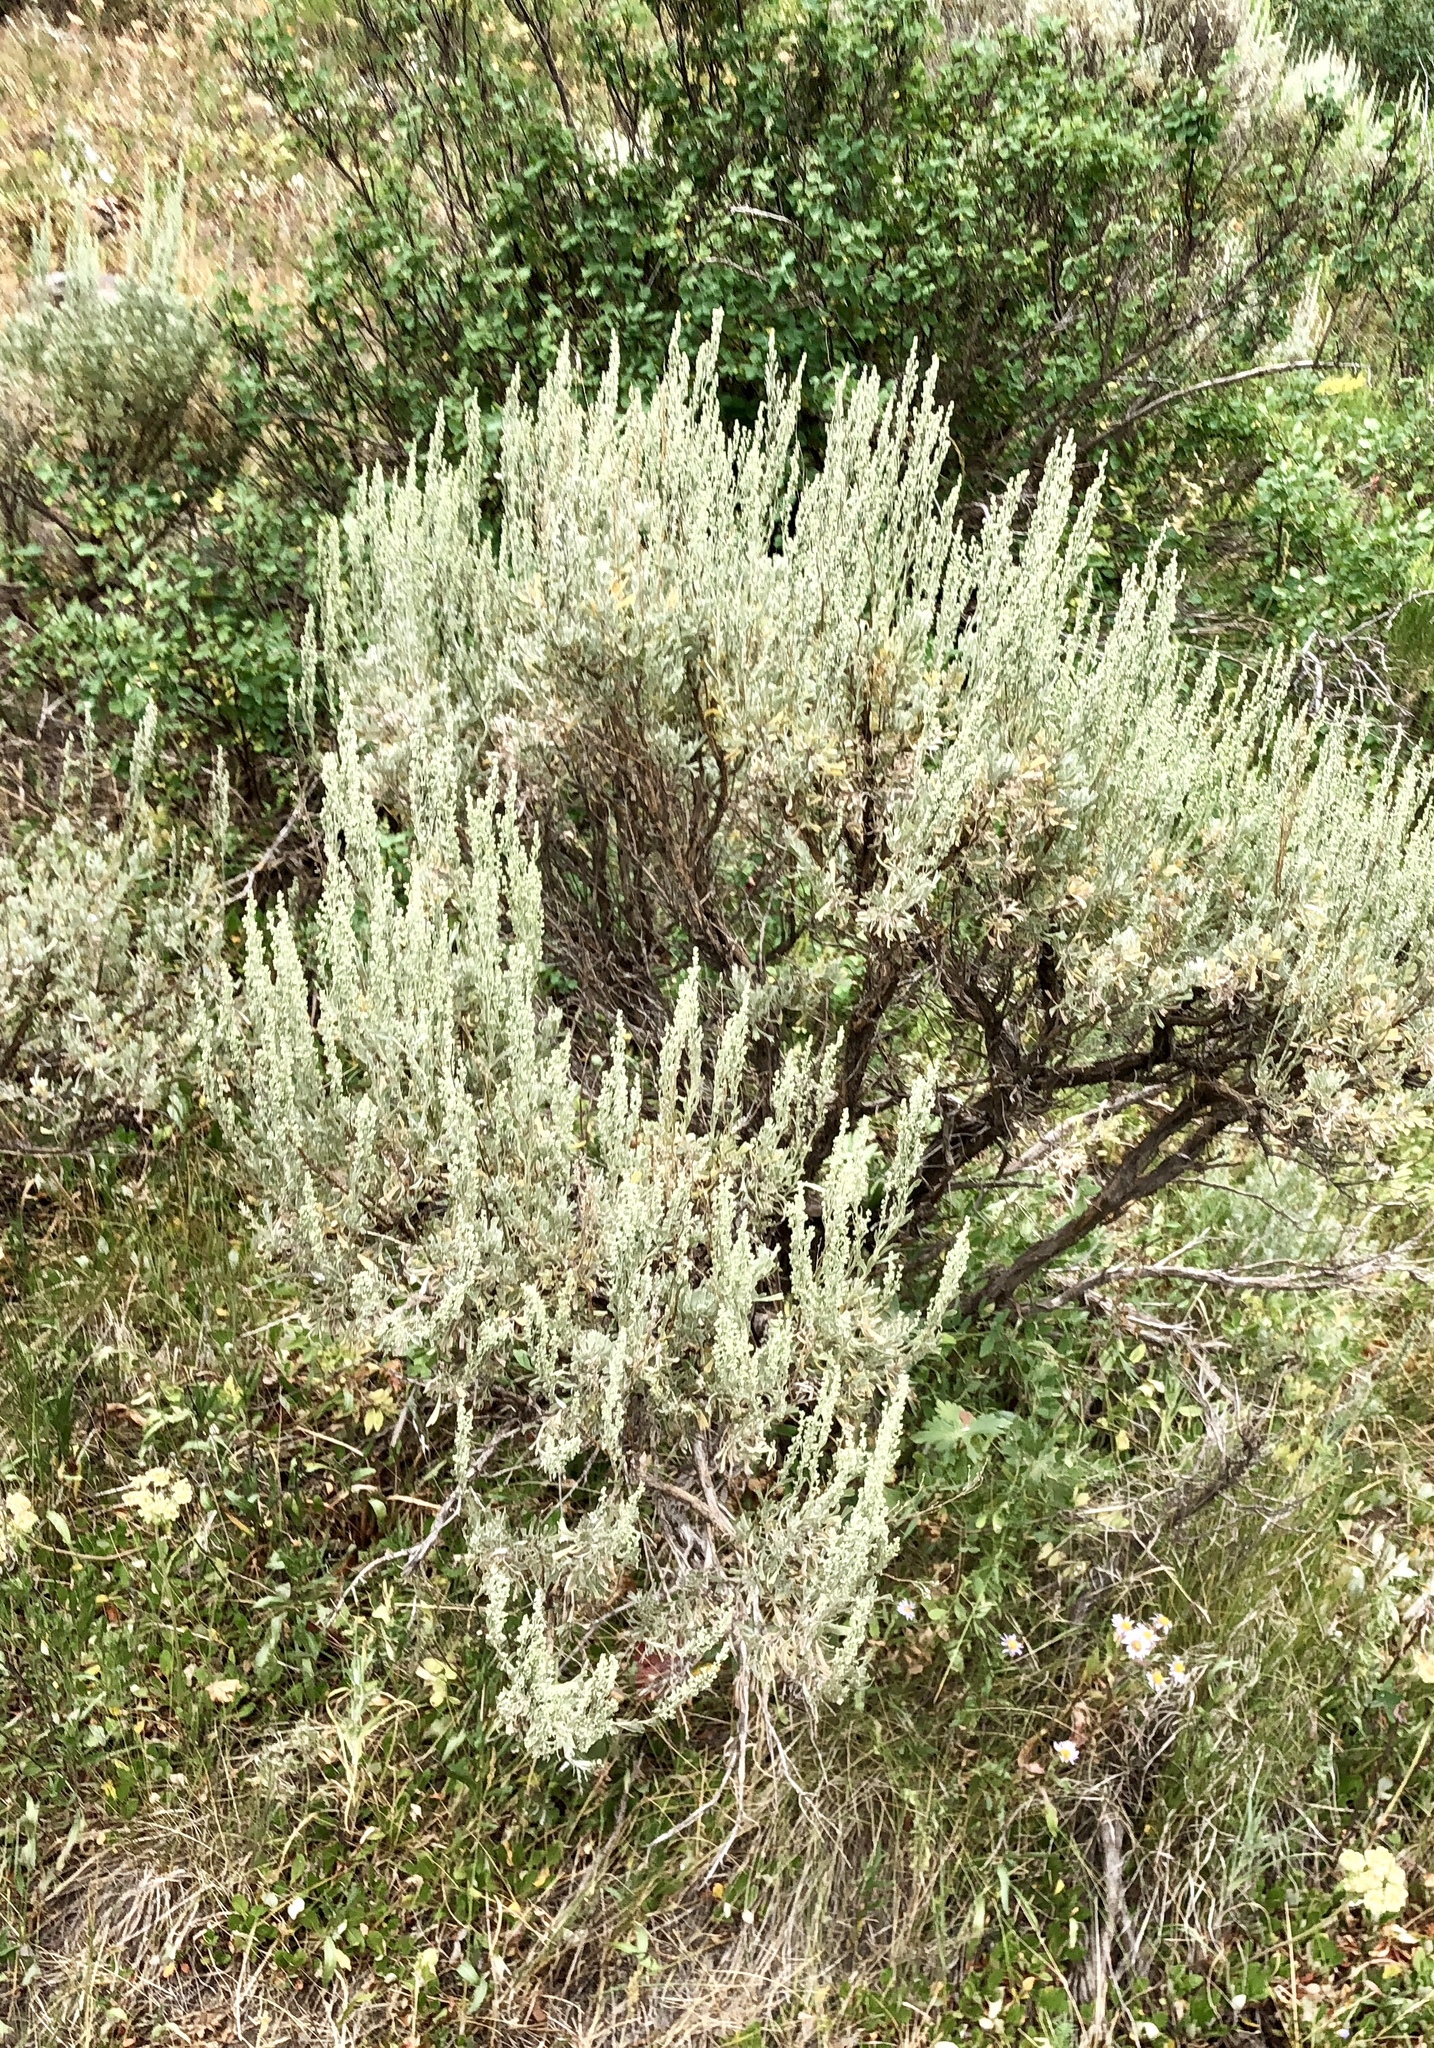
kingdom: Plantae
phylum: Tracheophyta
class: Magnoliopsida
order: Asterales
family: Asteraceae
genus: Artemisia
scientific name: Artemisia tridentata
